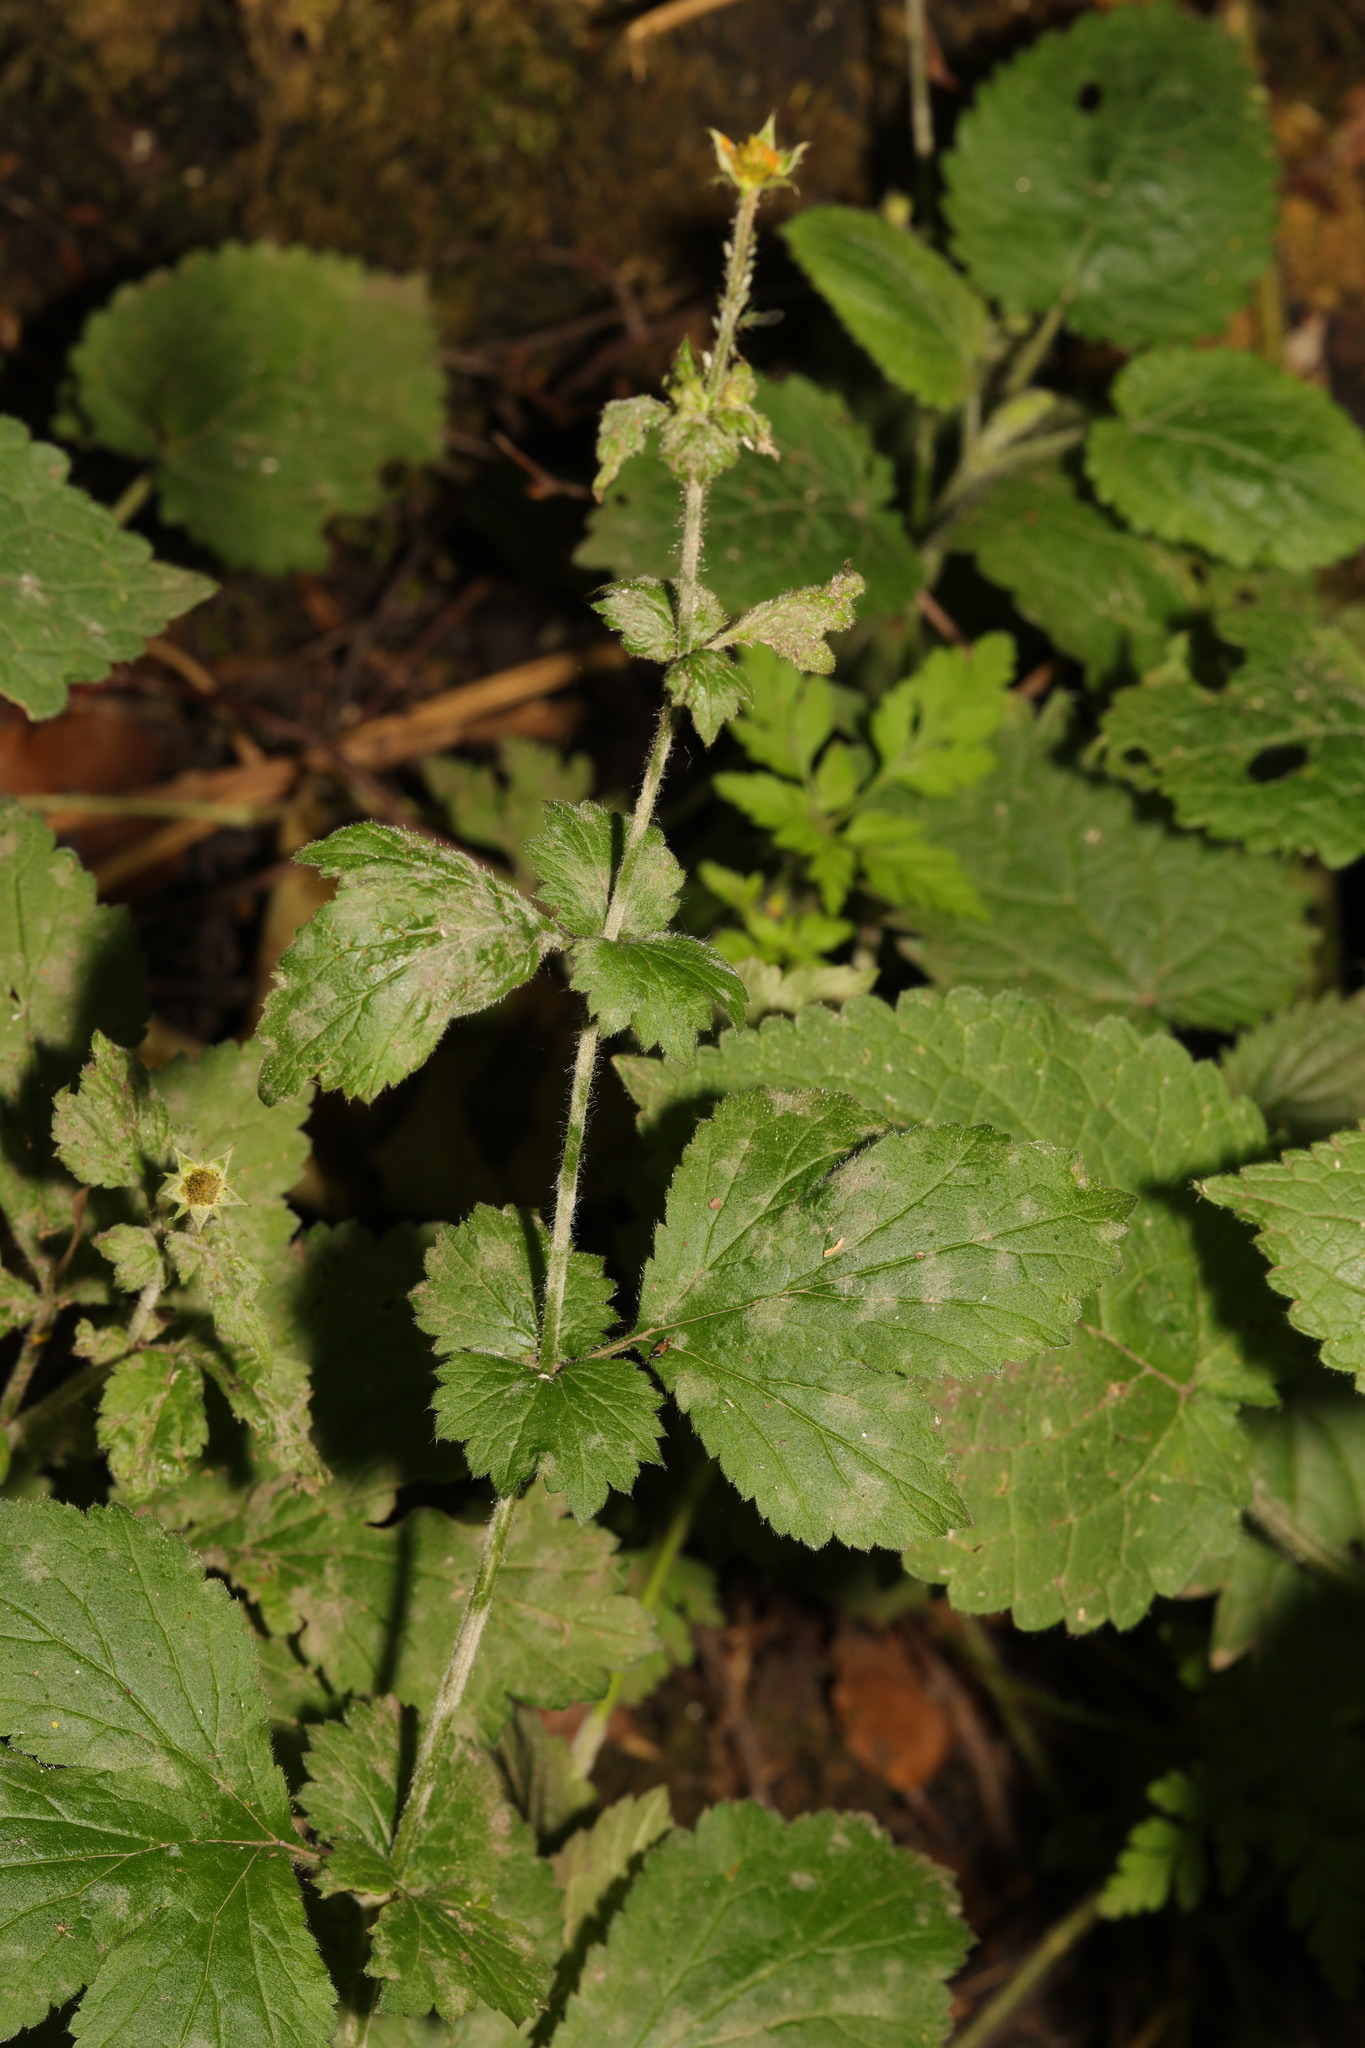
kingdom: Plantae
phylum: Tracheophyta
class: Magnoliopsida
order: Rosales
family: Rosaceae
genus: Geum
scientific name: Geum urbanum
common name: Wood avens
